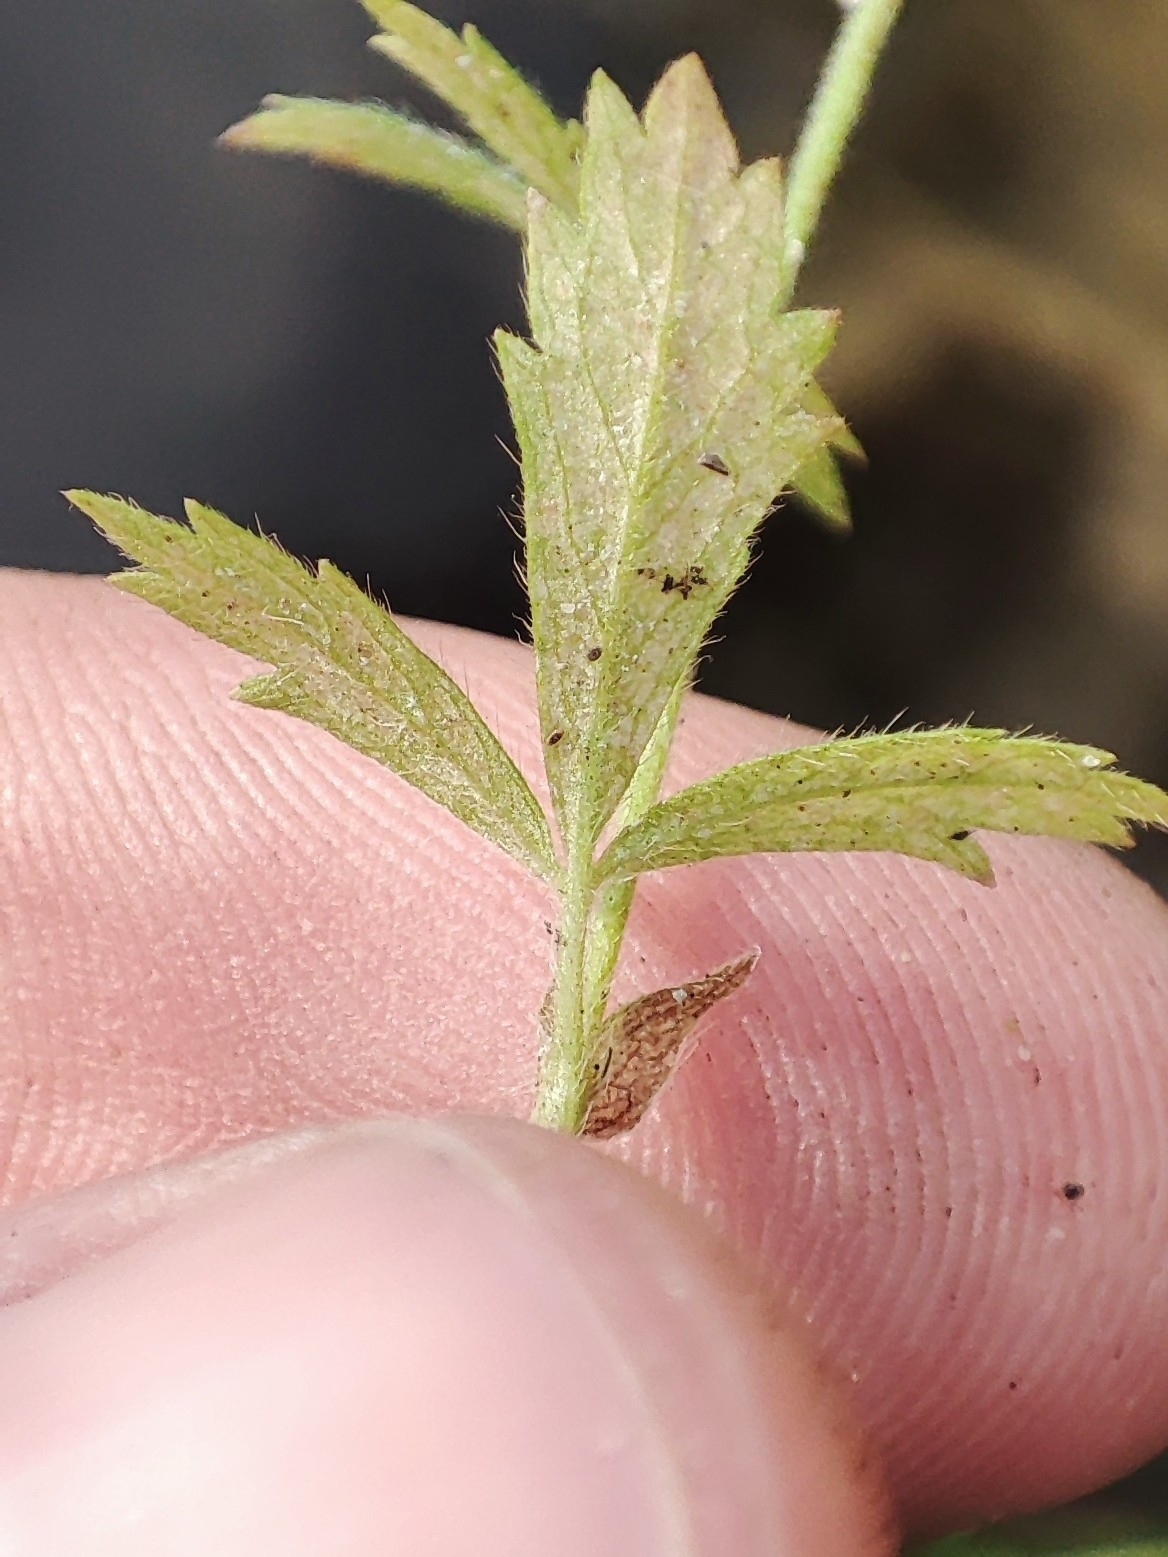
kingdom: Plantae
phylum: Tracheophyta
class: Magnoliopsida
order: Rosales
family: Rosaceae
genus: Potentilla
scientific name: Potentilla norvegica
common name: Ternate-leaved cinquefoil
